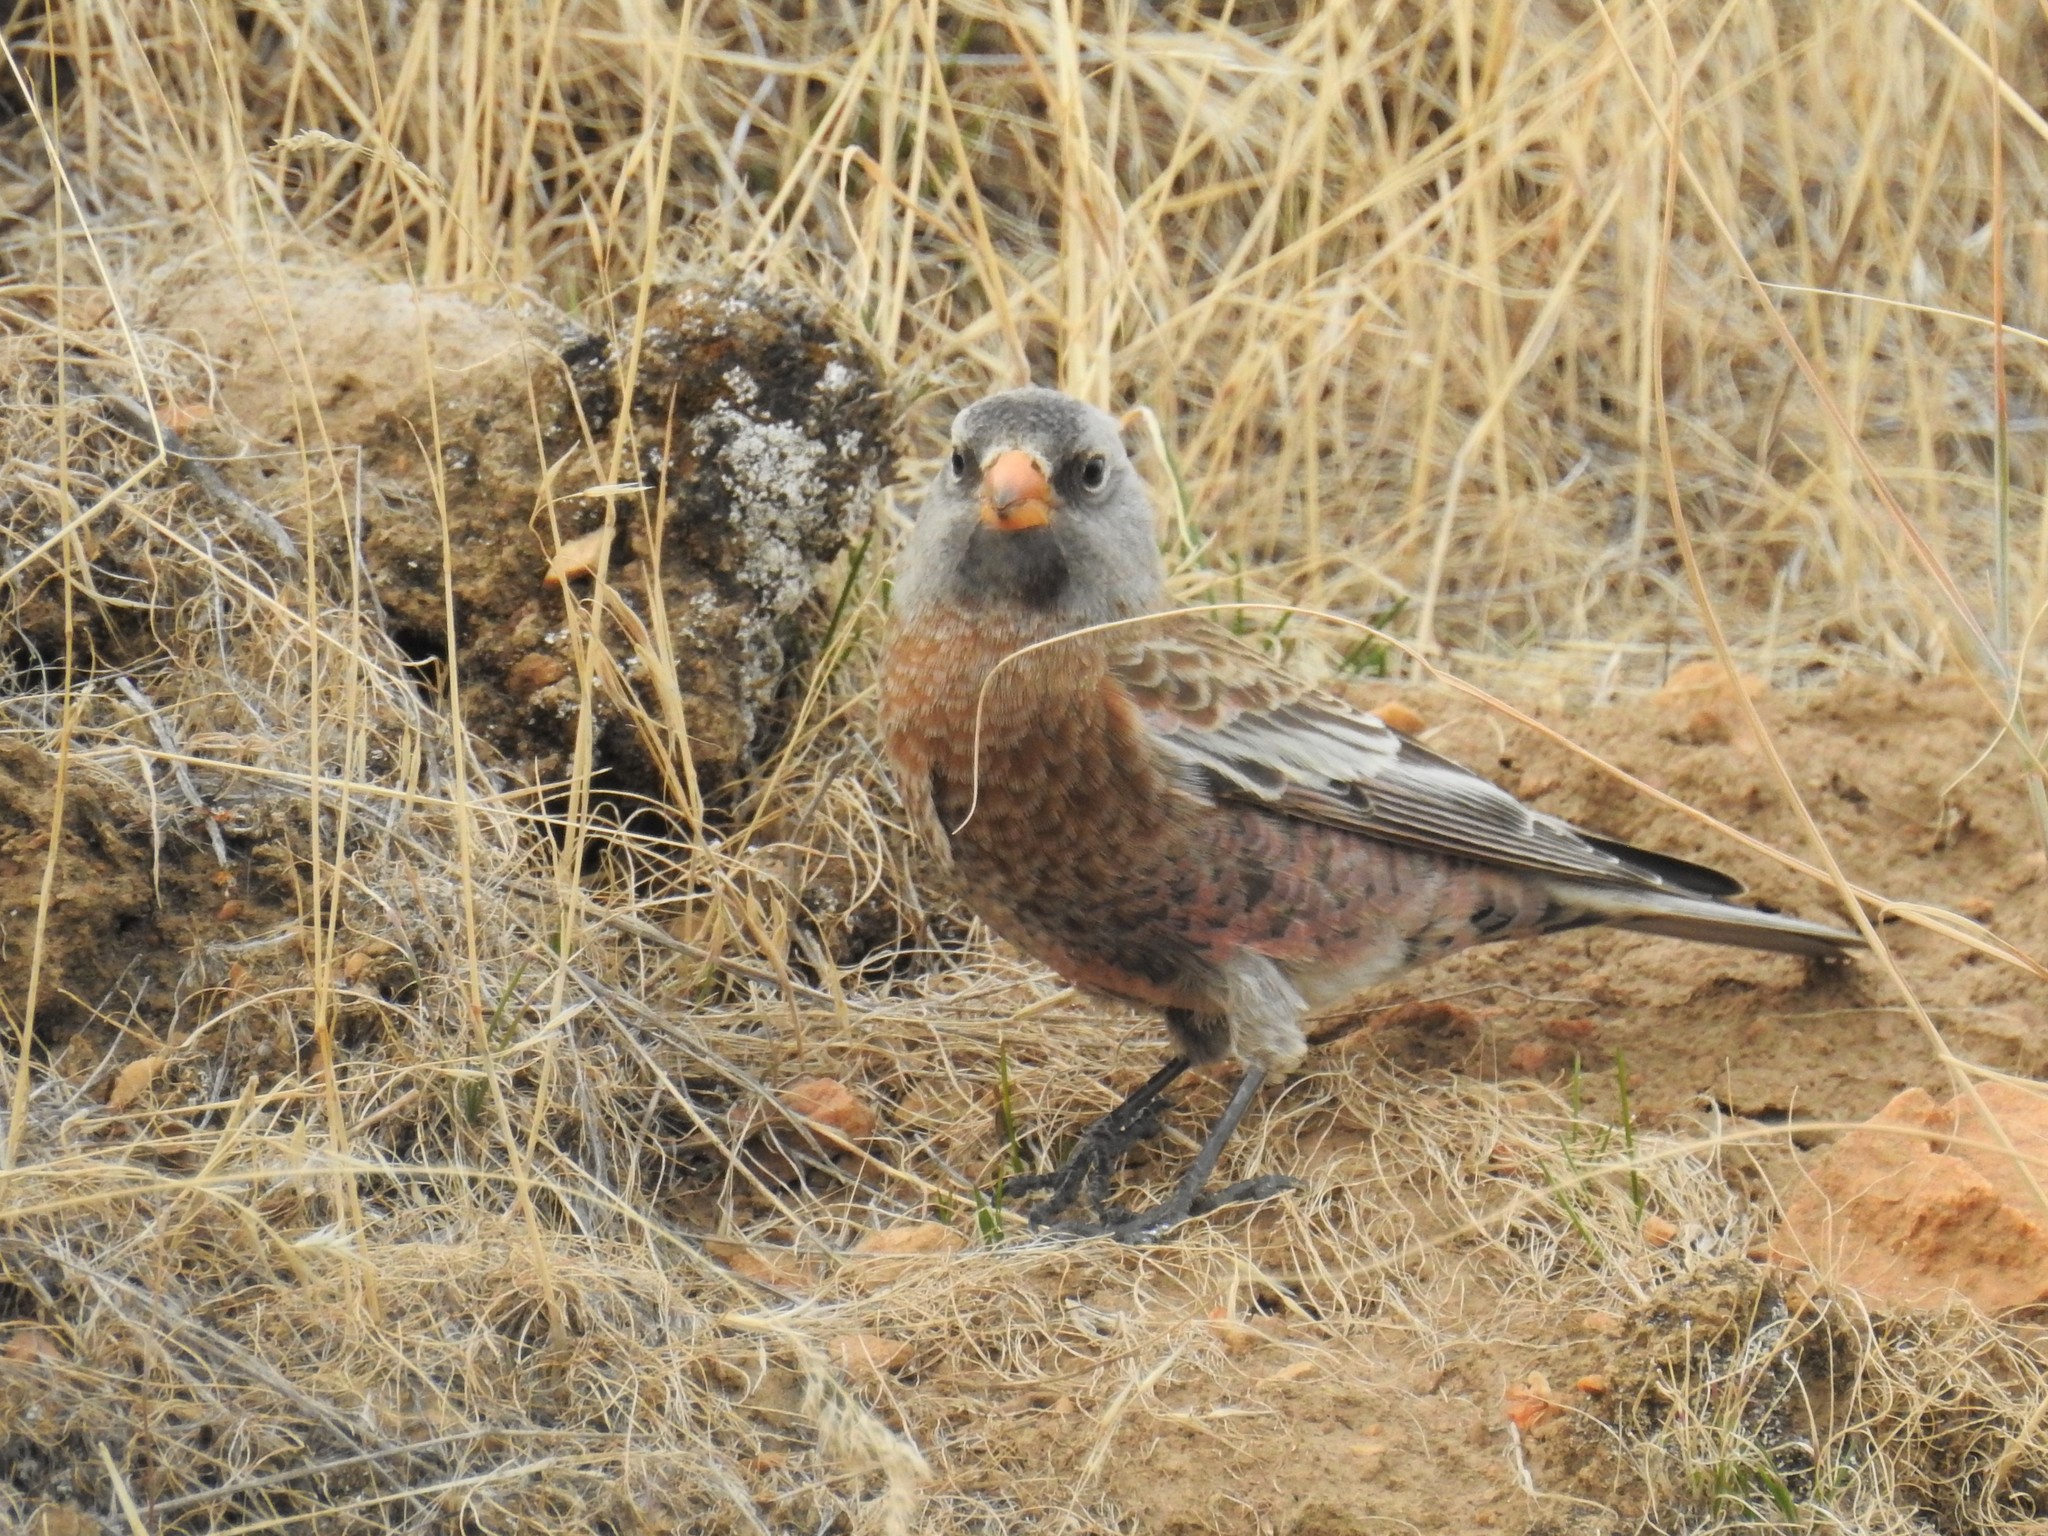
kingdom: Animalia
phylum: Chordata
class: Aves
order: Passeriformes
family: Fringillidae
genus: Leucosticte
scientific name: Leucosticte tephrocotis
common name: Gray-crowned rosy-finch
